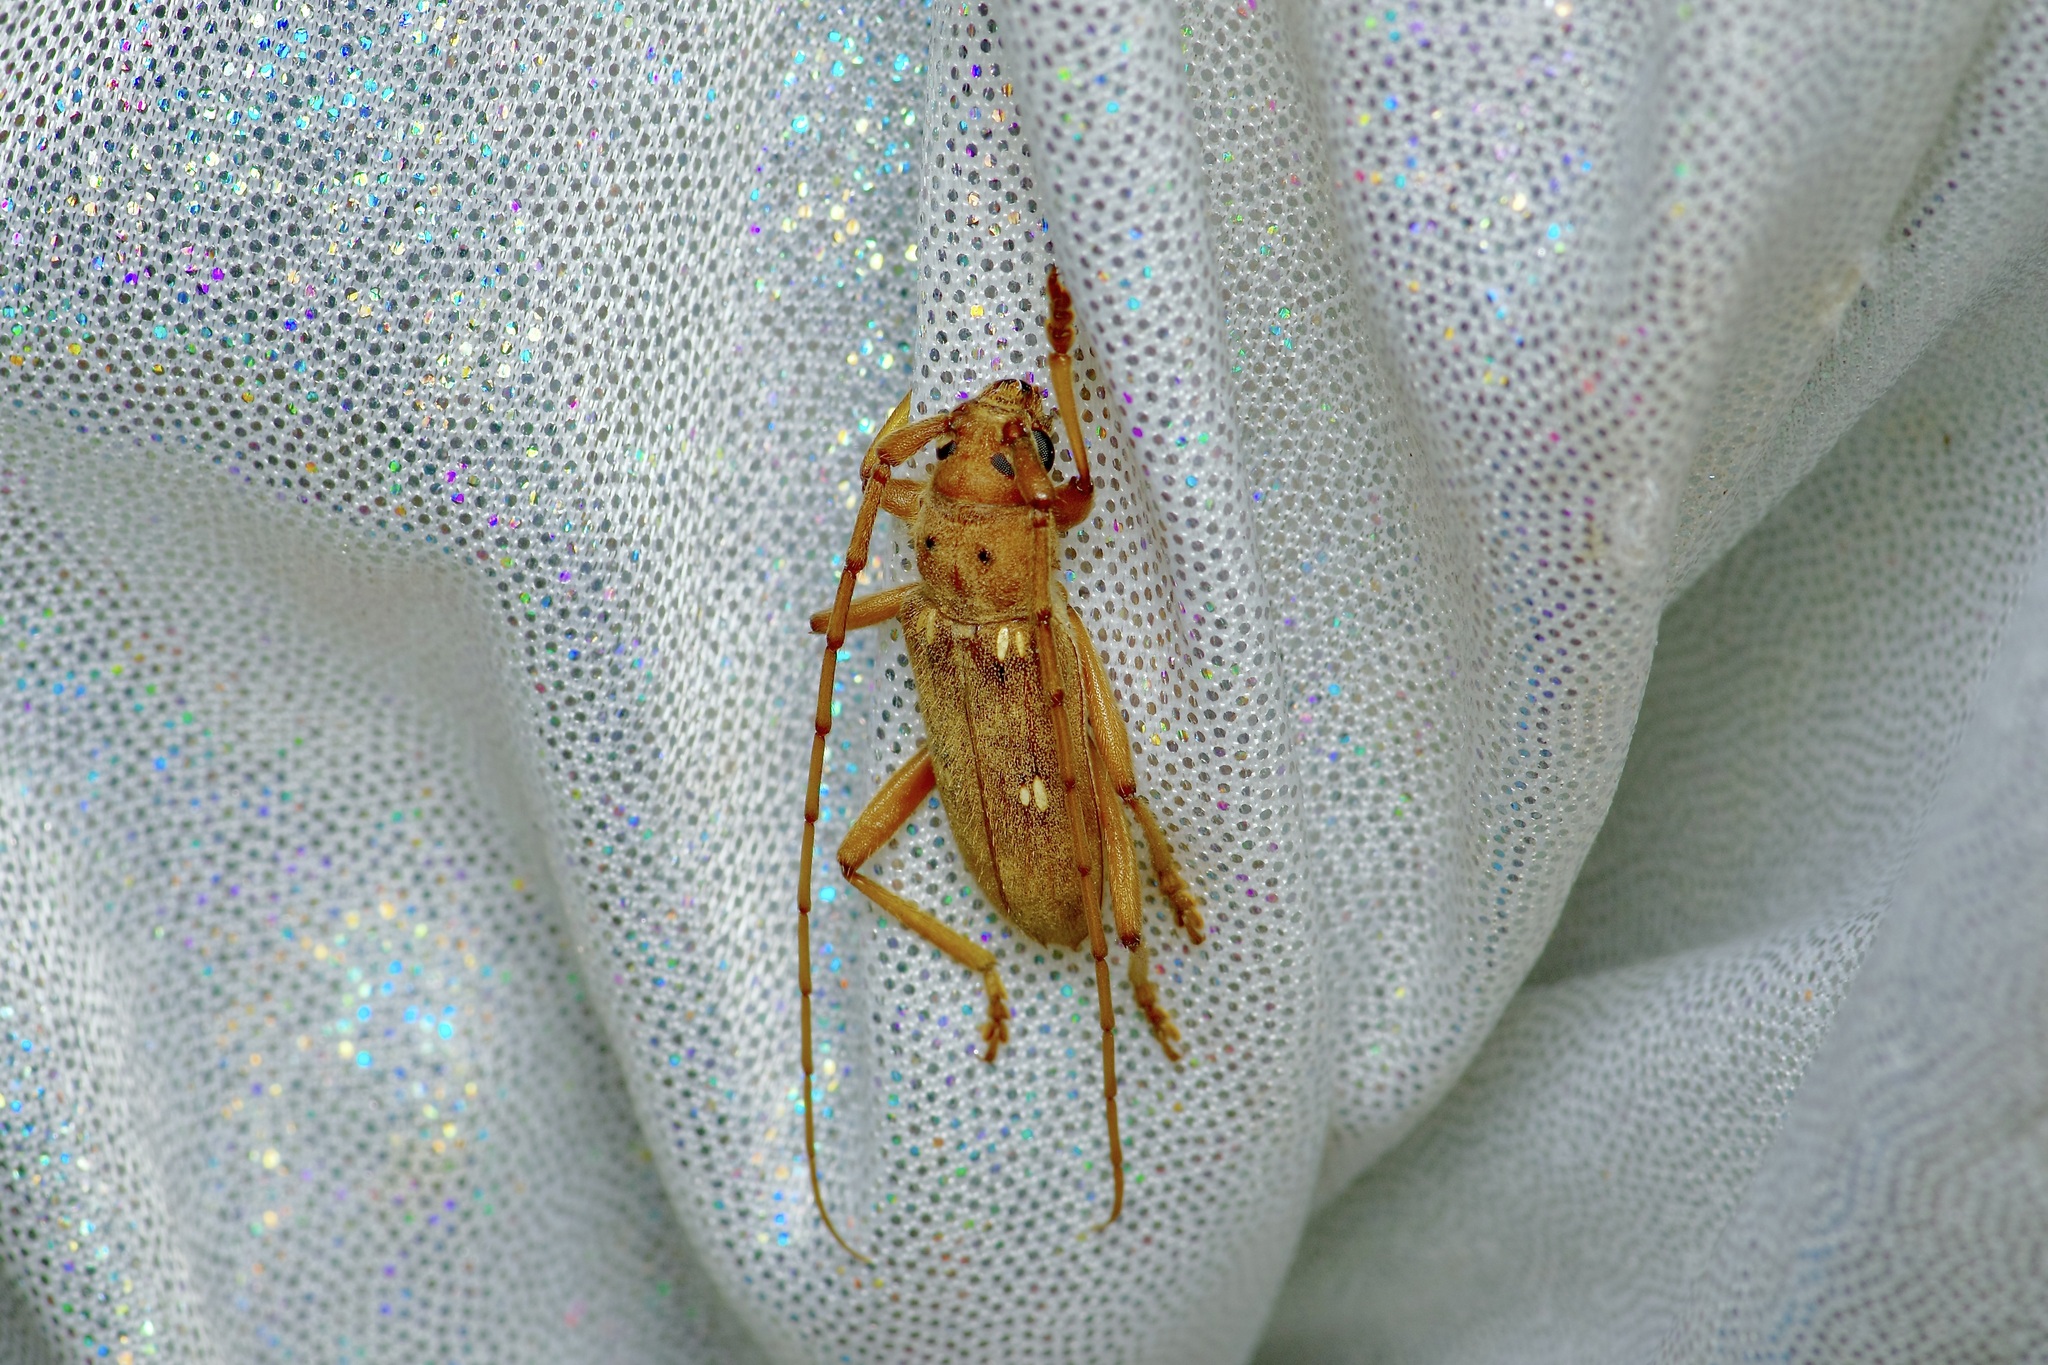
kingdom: Animalia
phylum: Arthropoda
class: Insecta
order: Coleoptera
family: Cerambycidae
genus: Eburia
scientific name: Eburia haldemani
